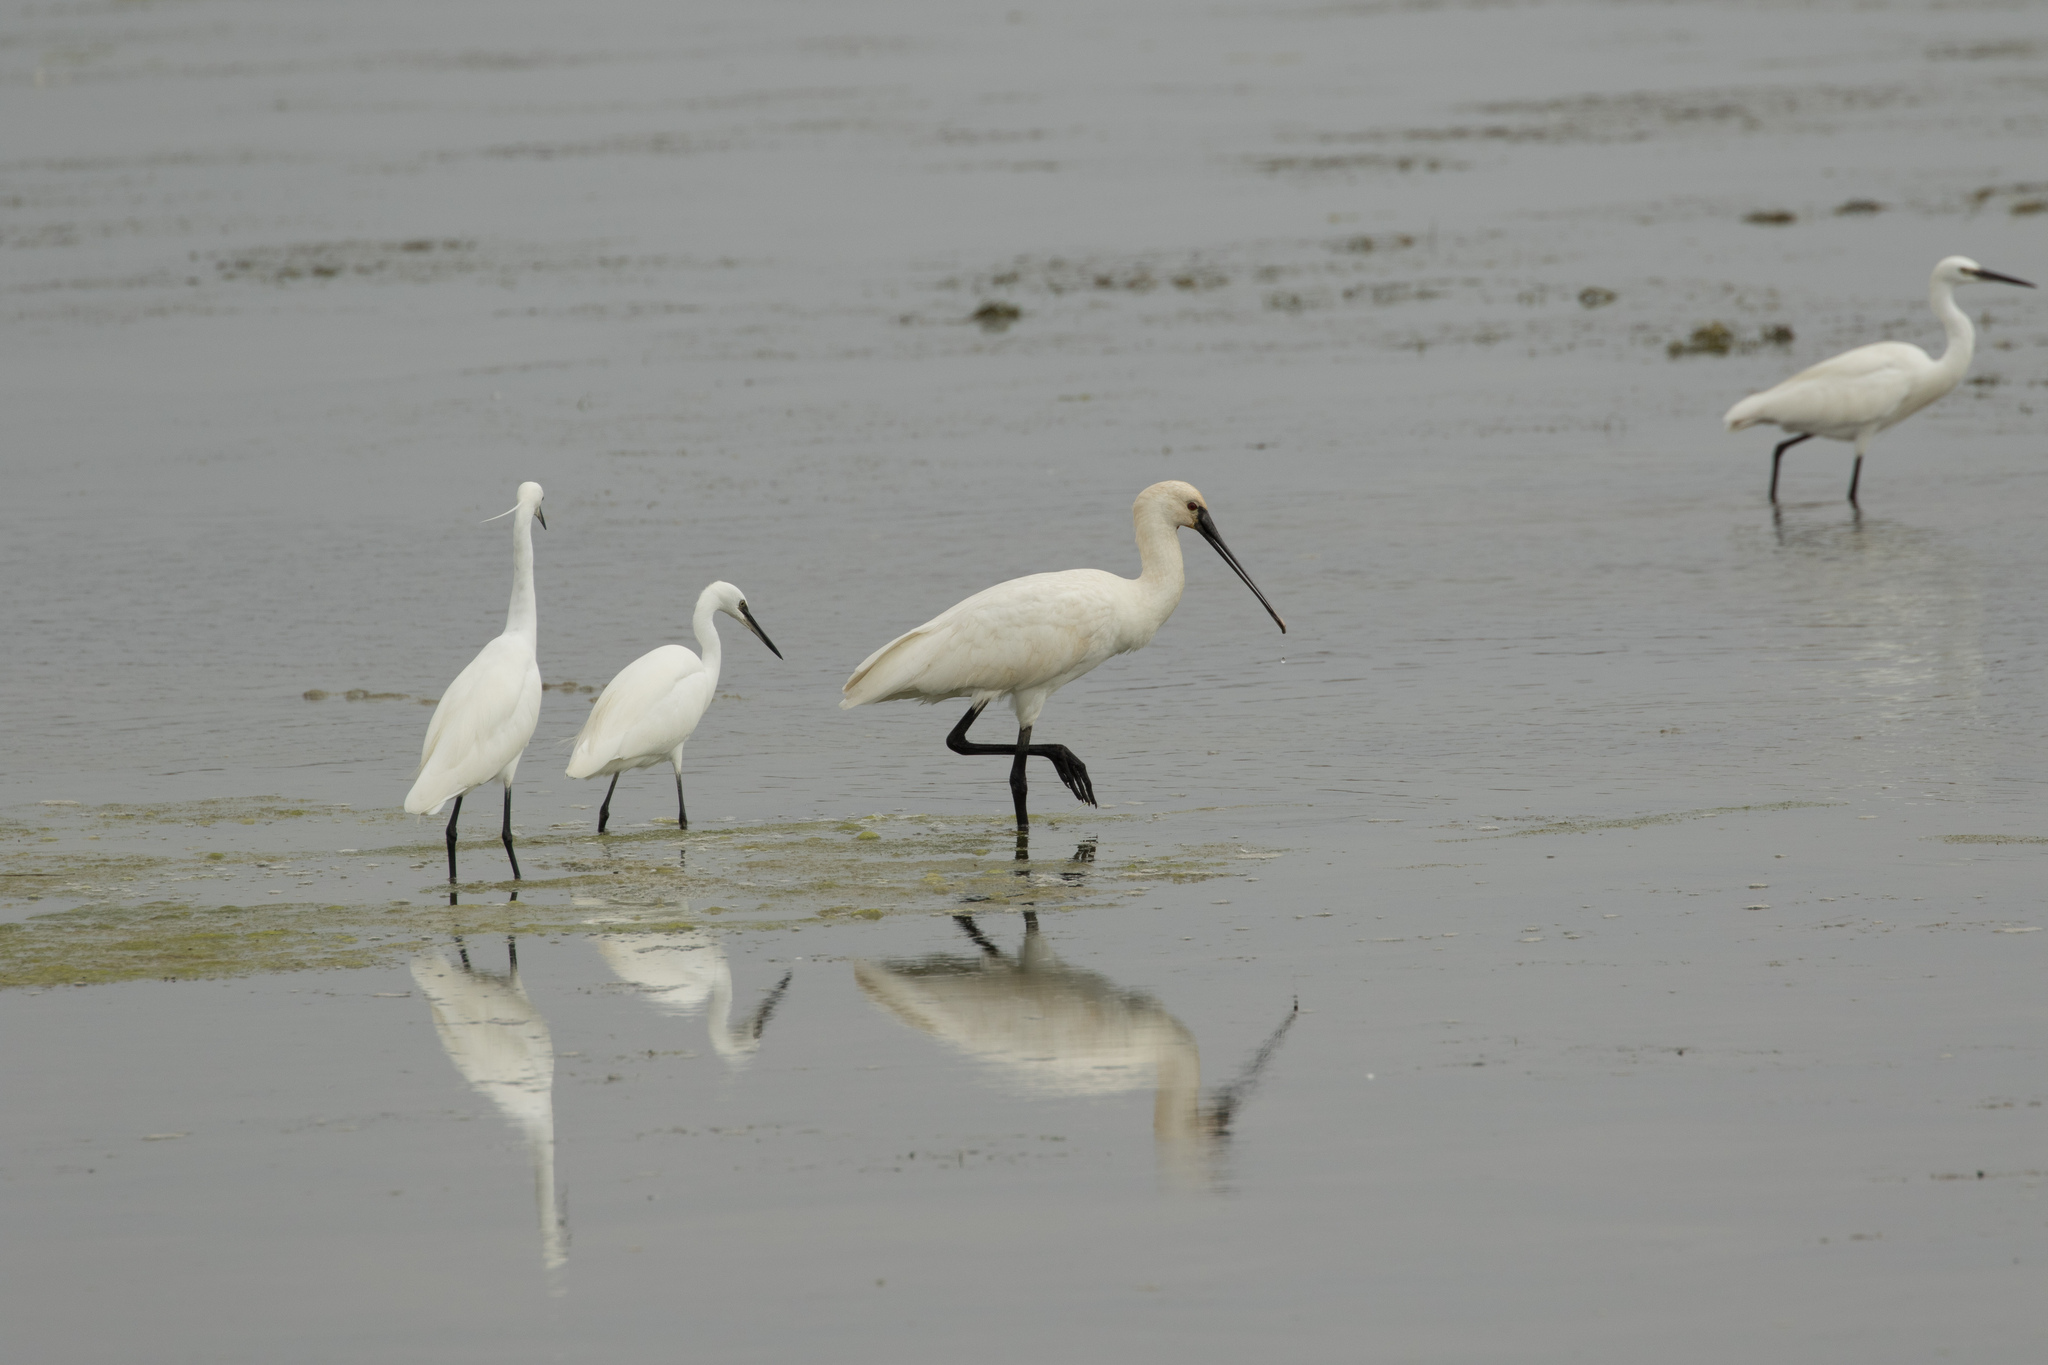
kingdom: Animalia
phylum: Chordata
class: Aves
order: Pelecaniformes
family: Ardeidae
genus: Egretta
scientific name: Egretta garzetta
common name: Little egret
